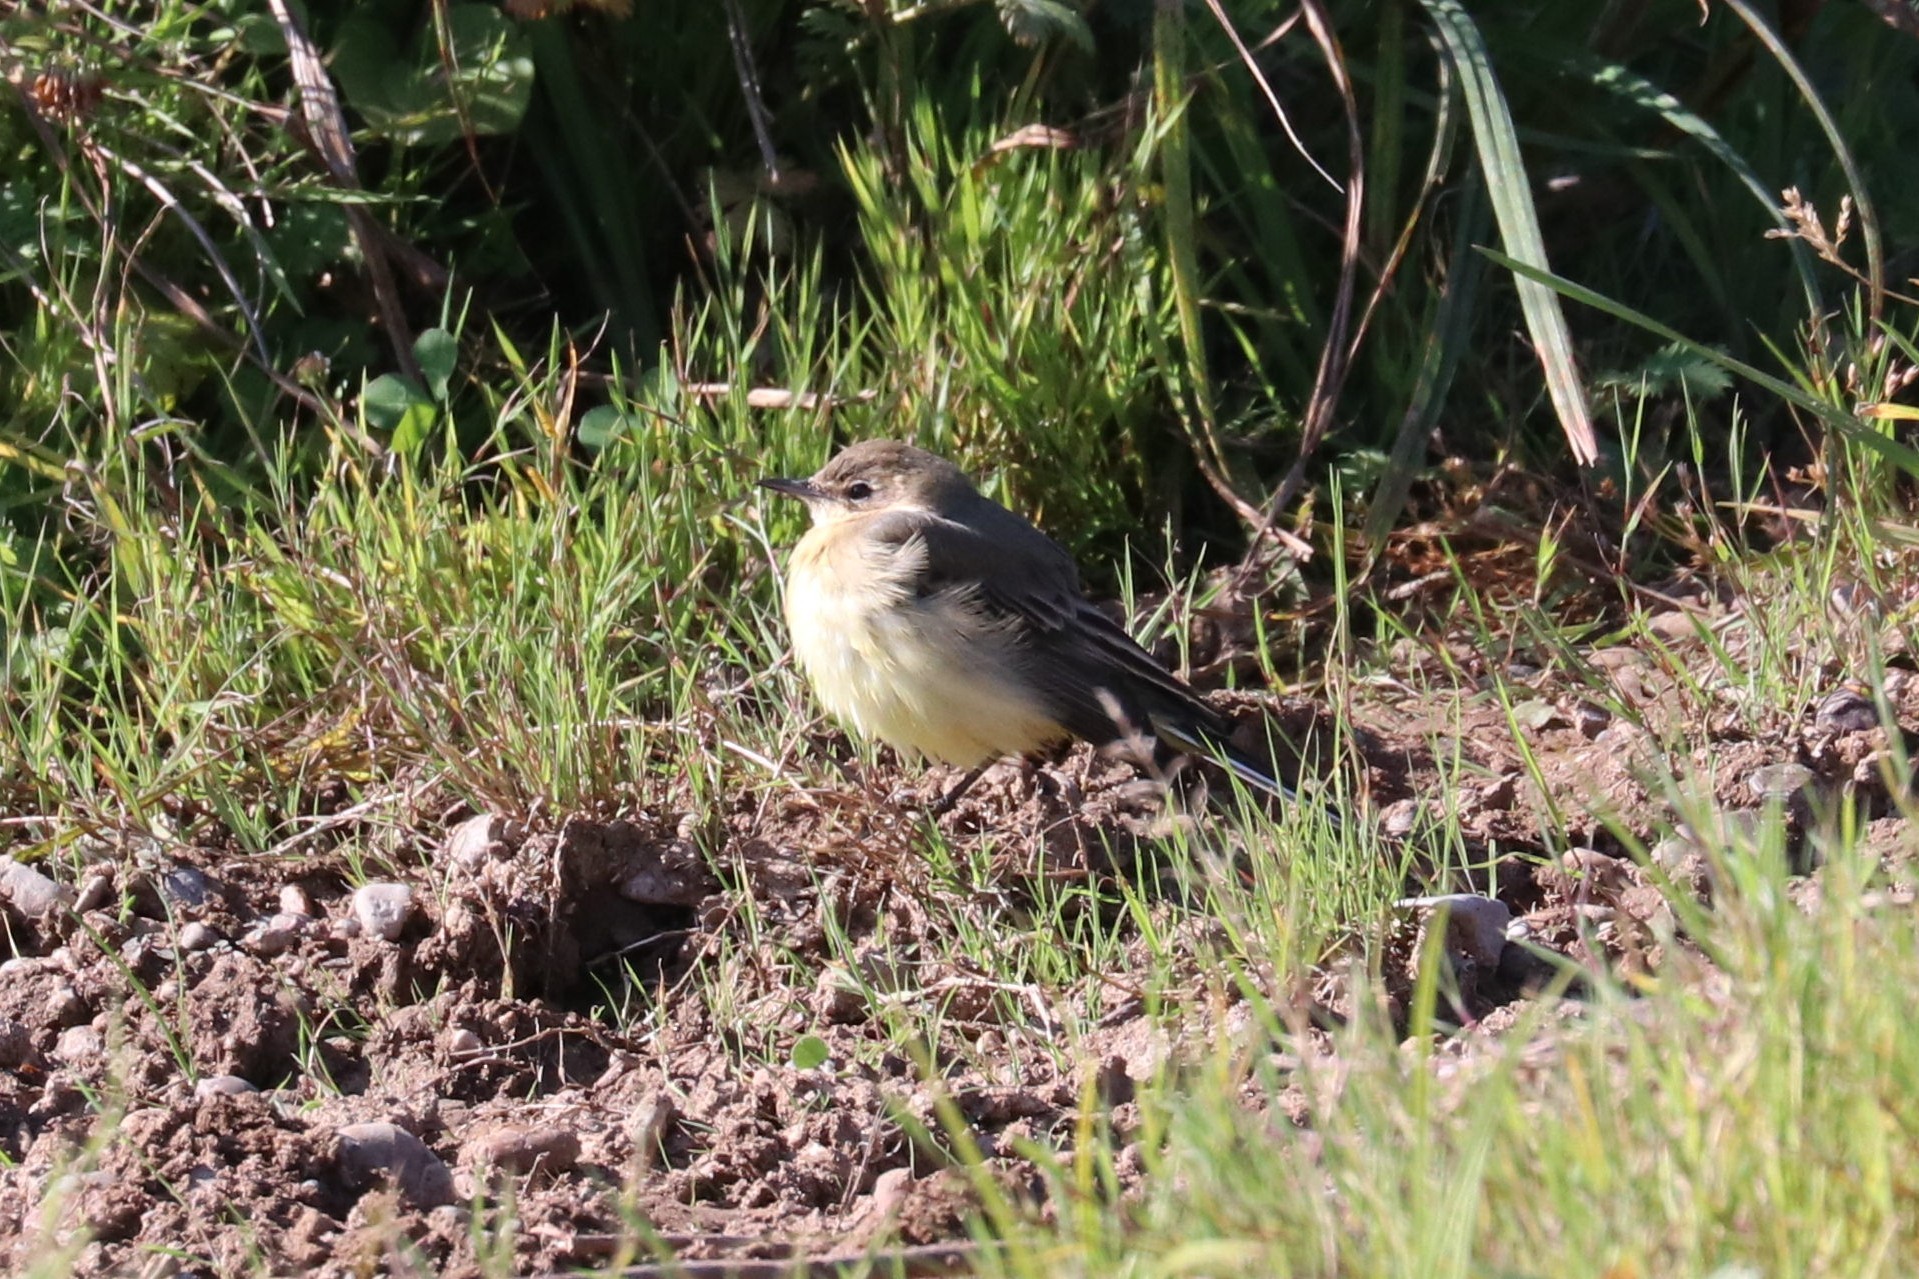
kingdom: Animalia
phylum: Chordata
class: Aves
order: Passeriformes
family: Motacillidae
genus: Motacilla
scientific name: Motacilla flava
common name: Western yellow wagtail
